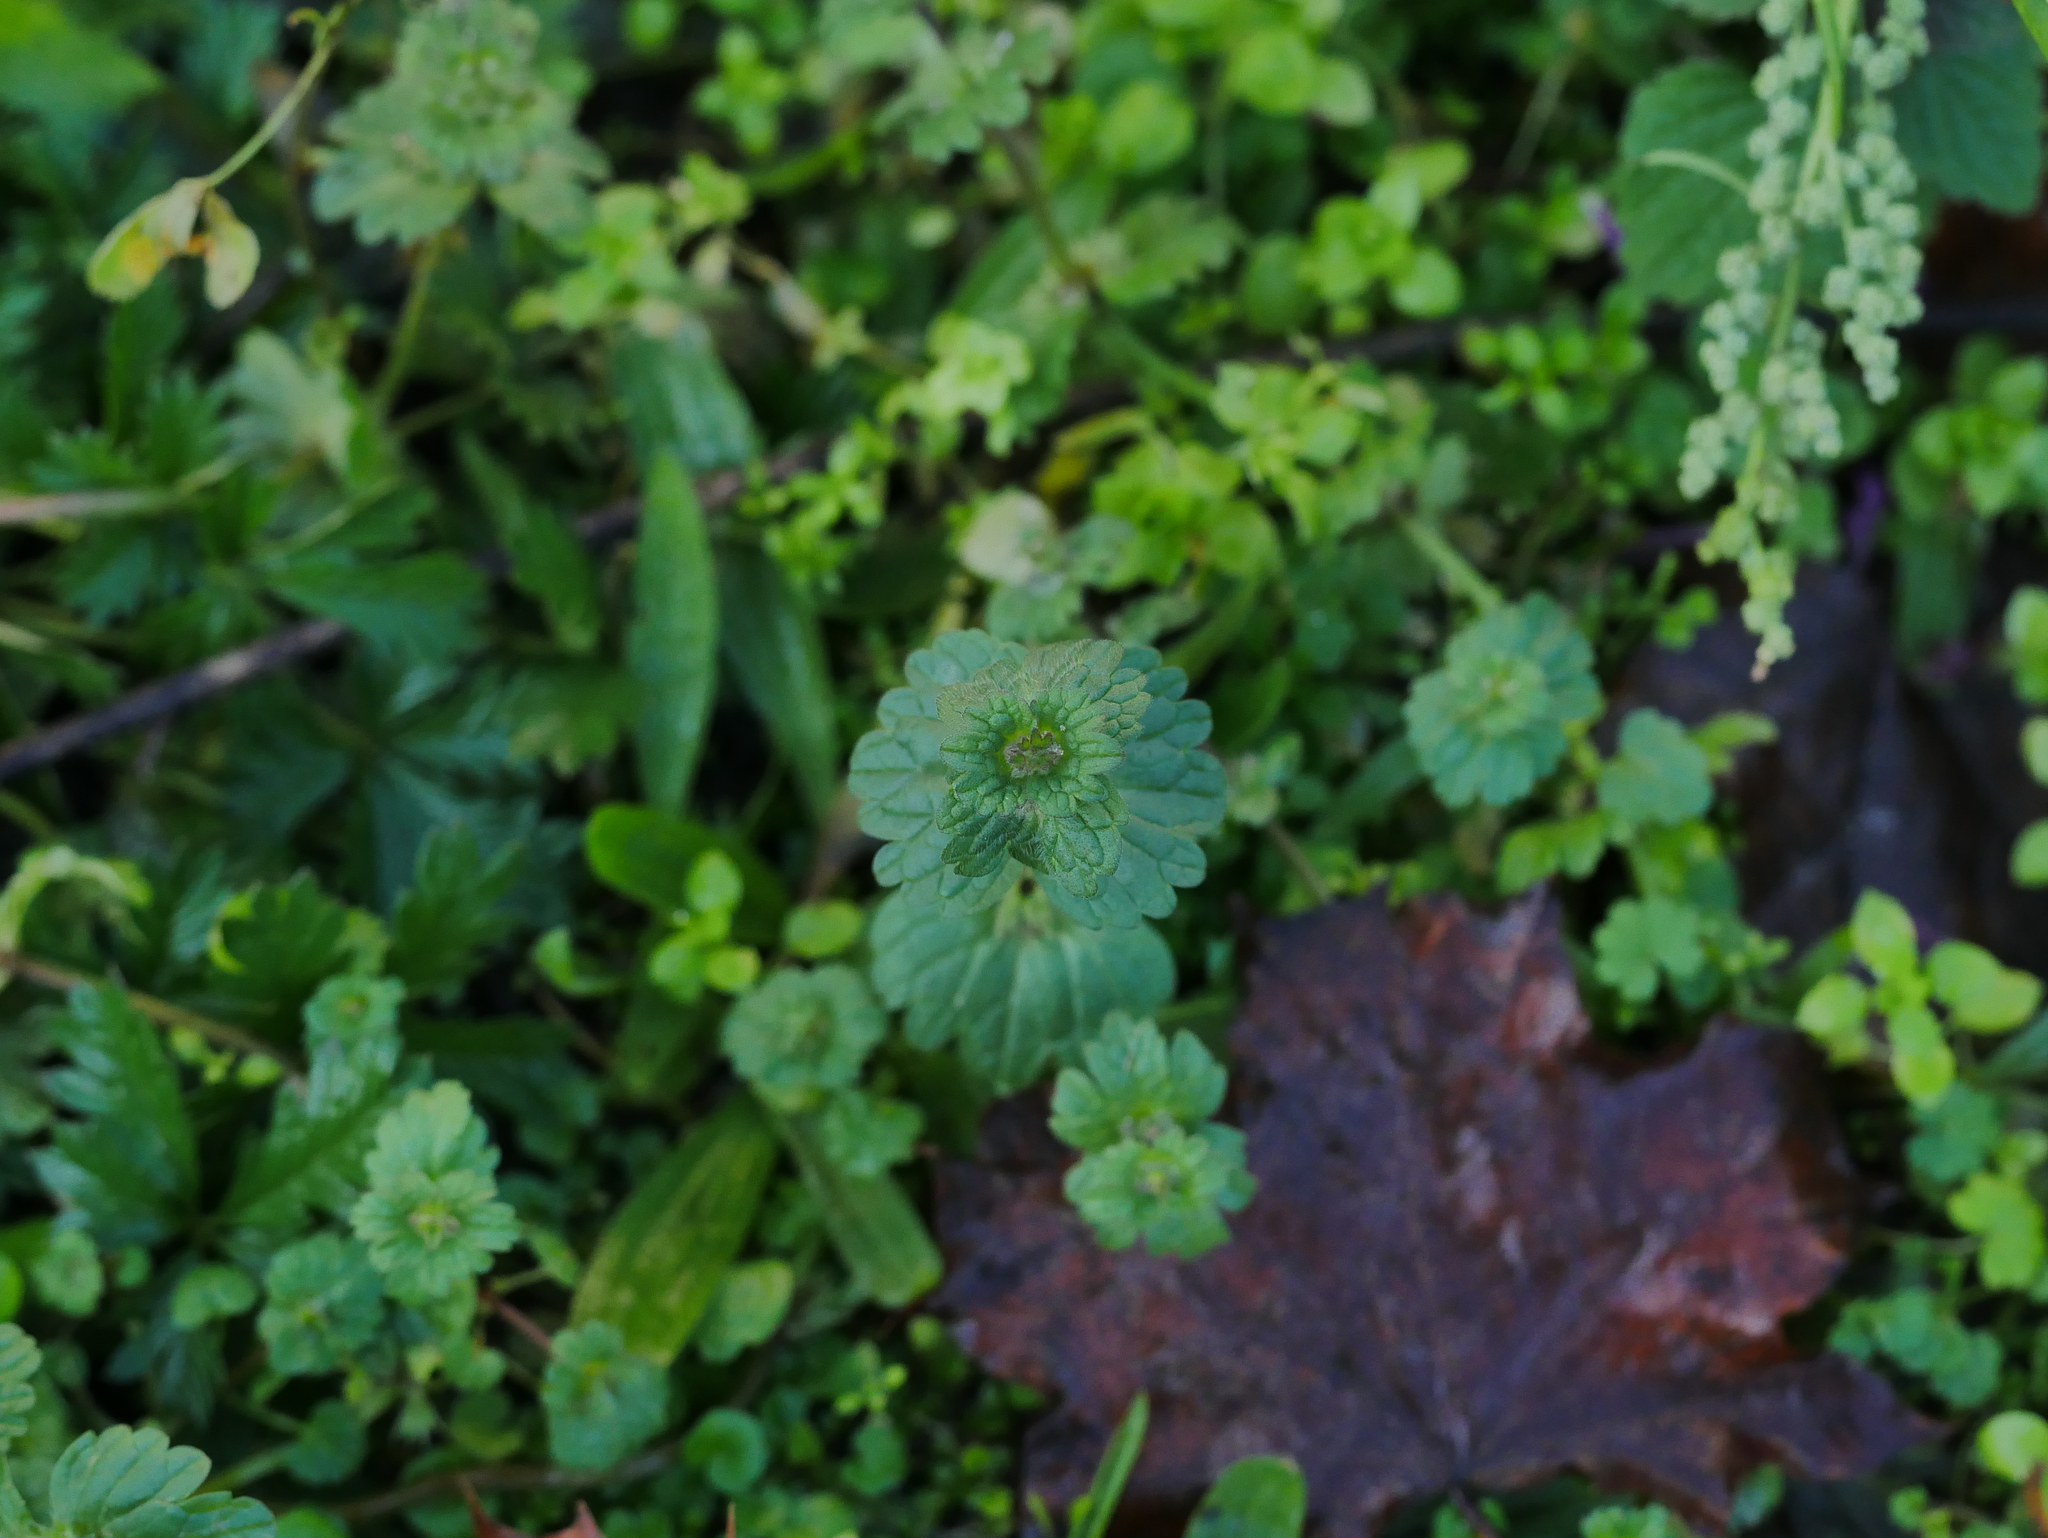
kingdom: Plantae
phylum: Tracheophyta
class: Magnoliopsida
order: Lamiales
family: Lamiaceae
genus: Lamium
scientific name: Lamium amplexicaule
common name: Henbit dead-nettle
